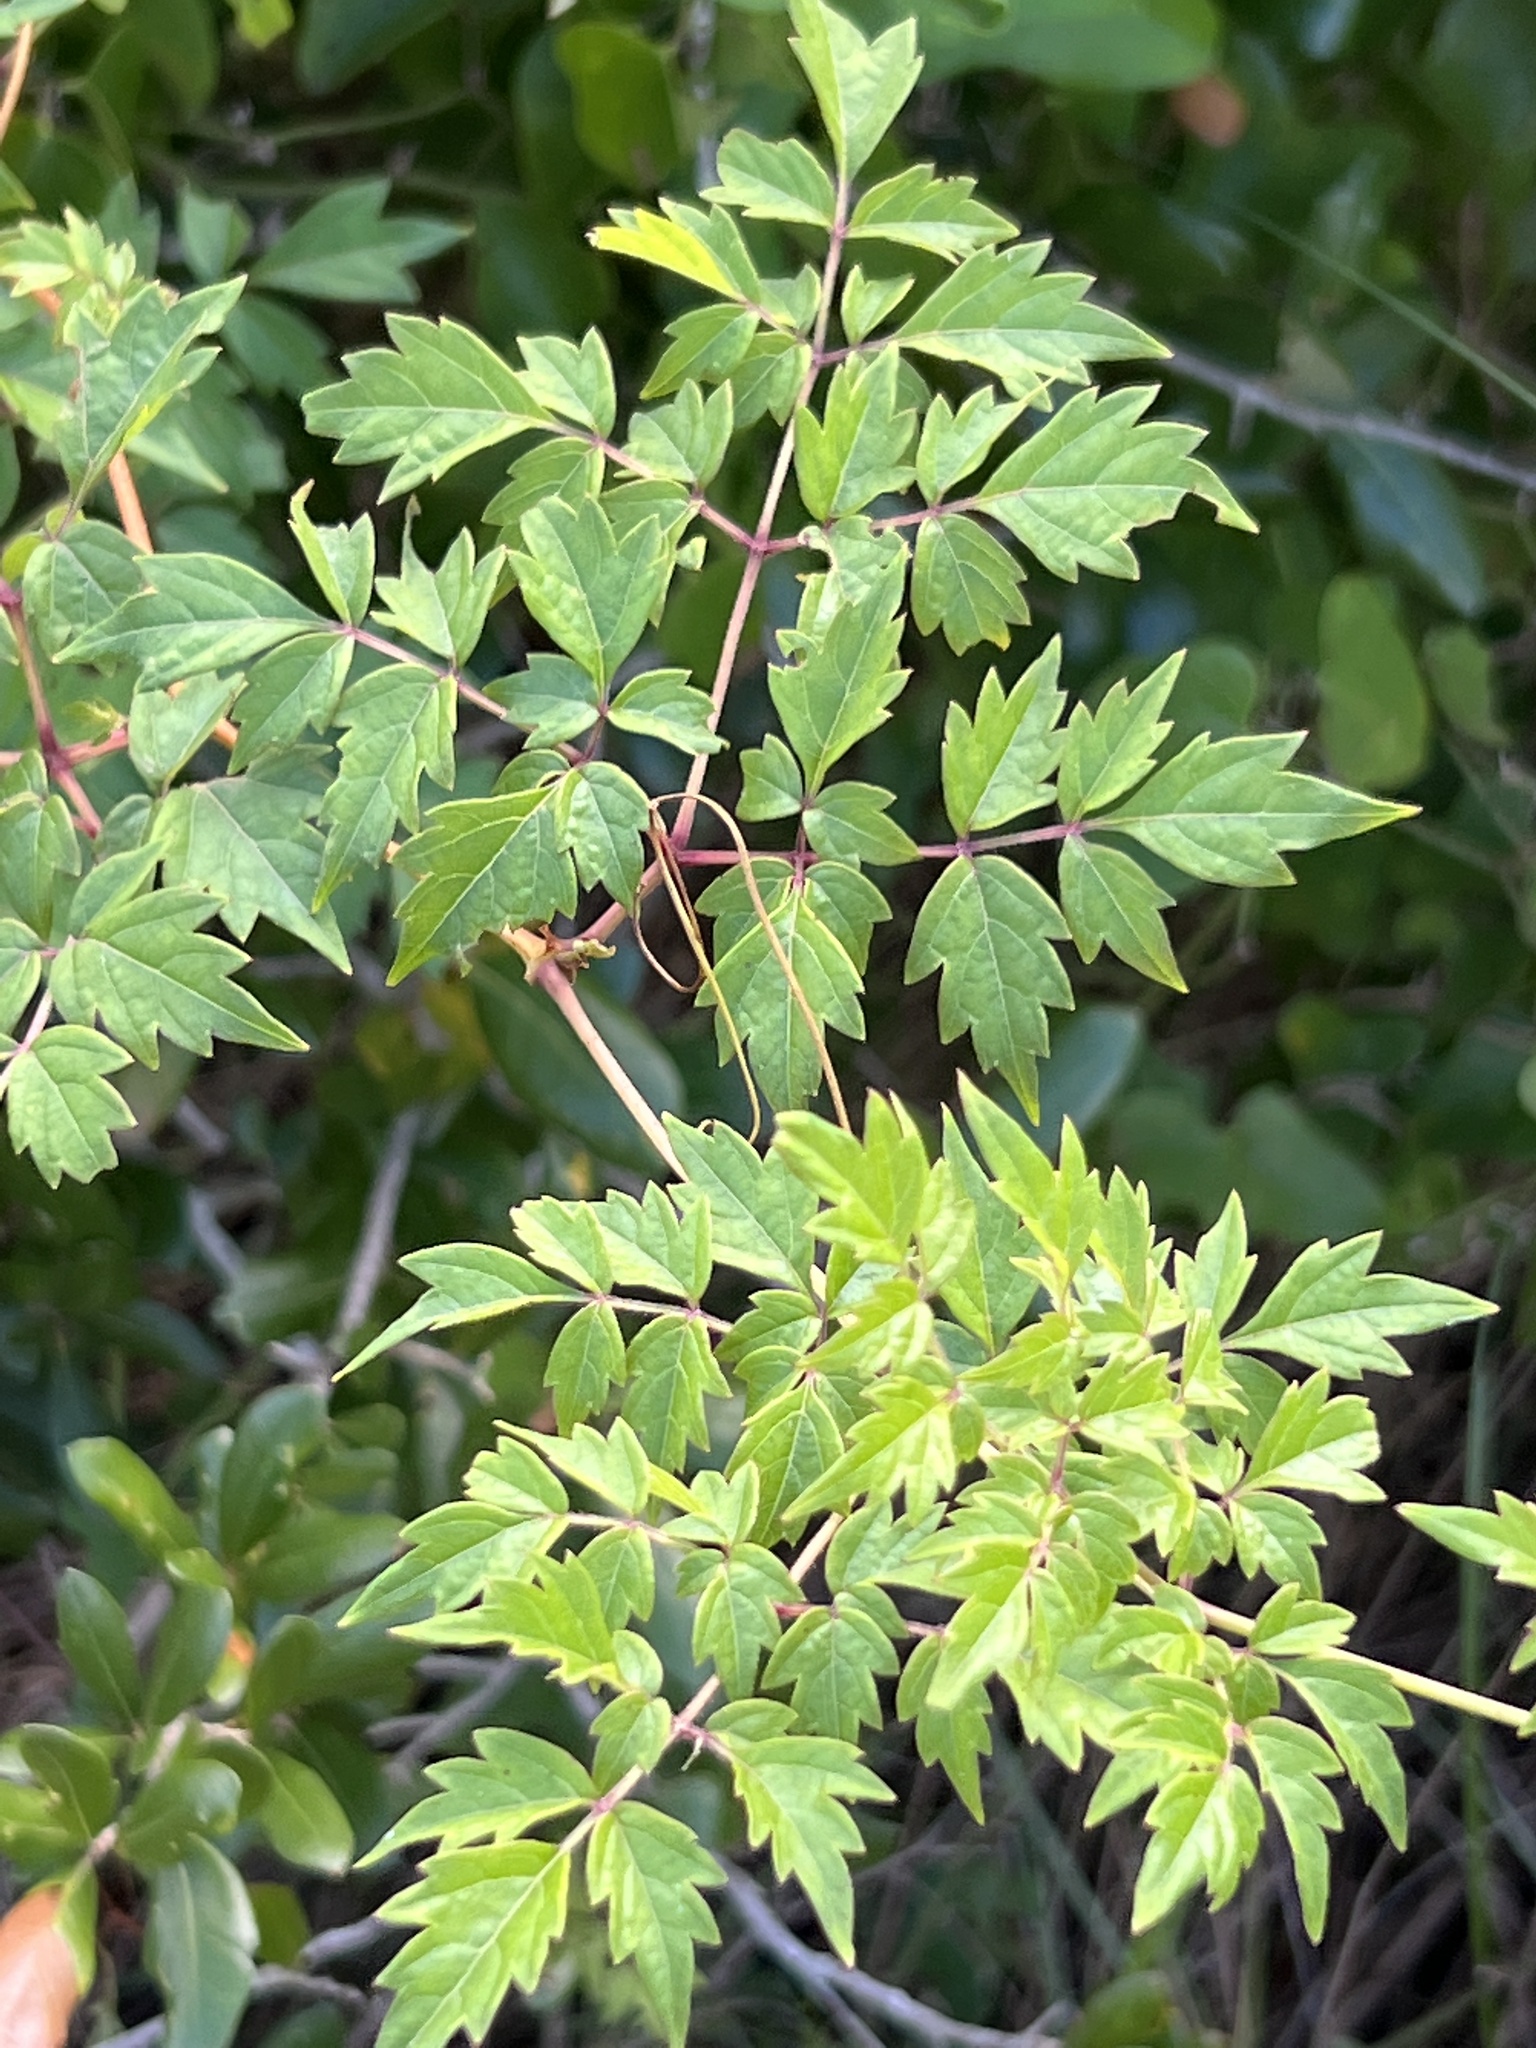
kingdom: Plantae
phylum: Tracheophyta
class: Magnoliopsida
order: Vitales
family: Vitaceae
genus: Nekemias
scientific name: Nekemias arborea
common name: Peppervine
